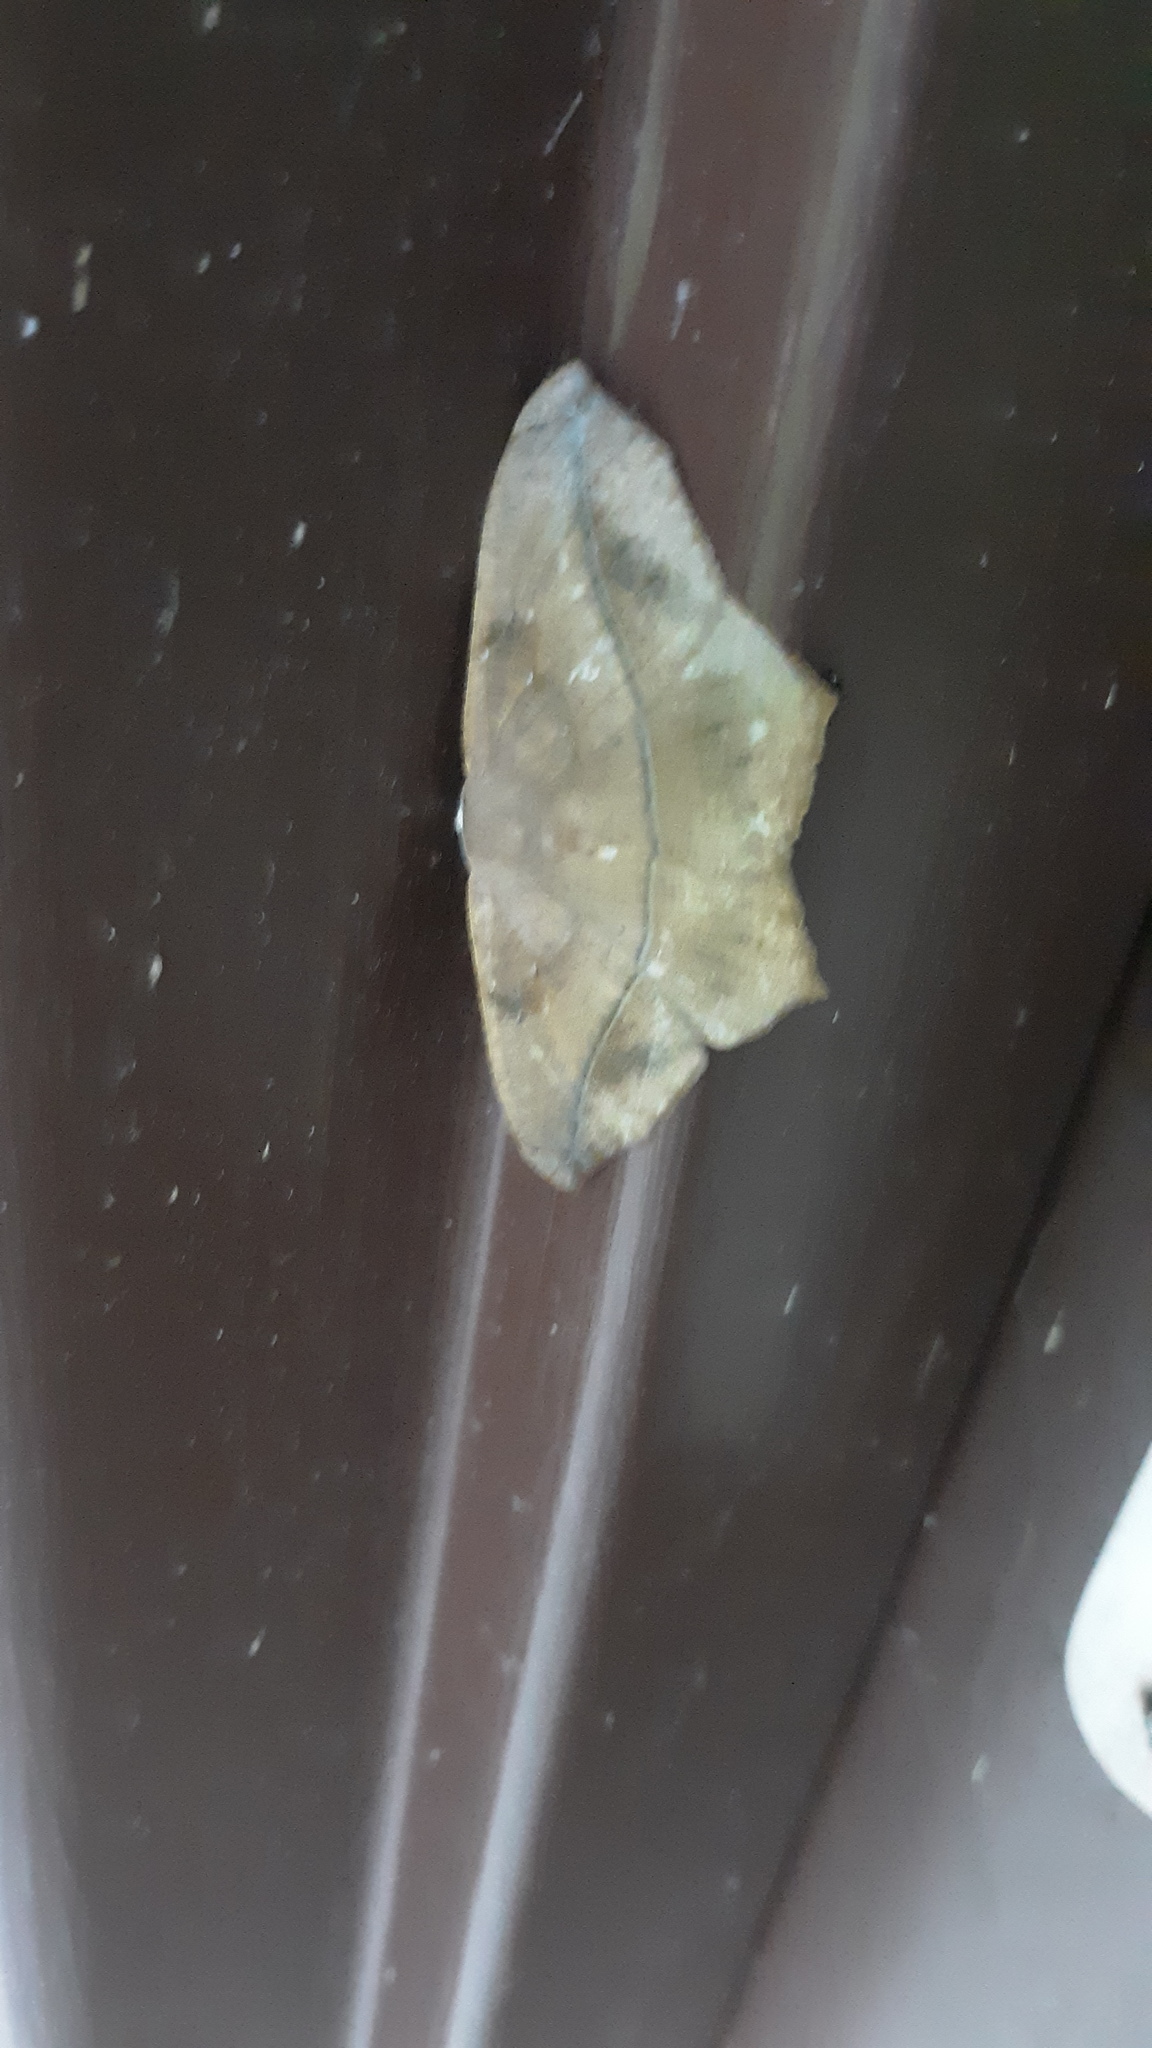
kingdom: Animalia
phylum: Arthropoda
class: Insecta
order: Lepidoptera
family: Geometridae
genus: Prochoerodes
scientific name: Prochoerodes lineola
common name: Large maple spanworm
